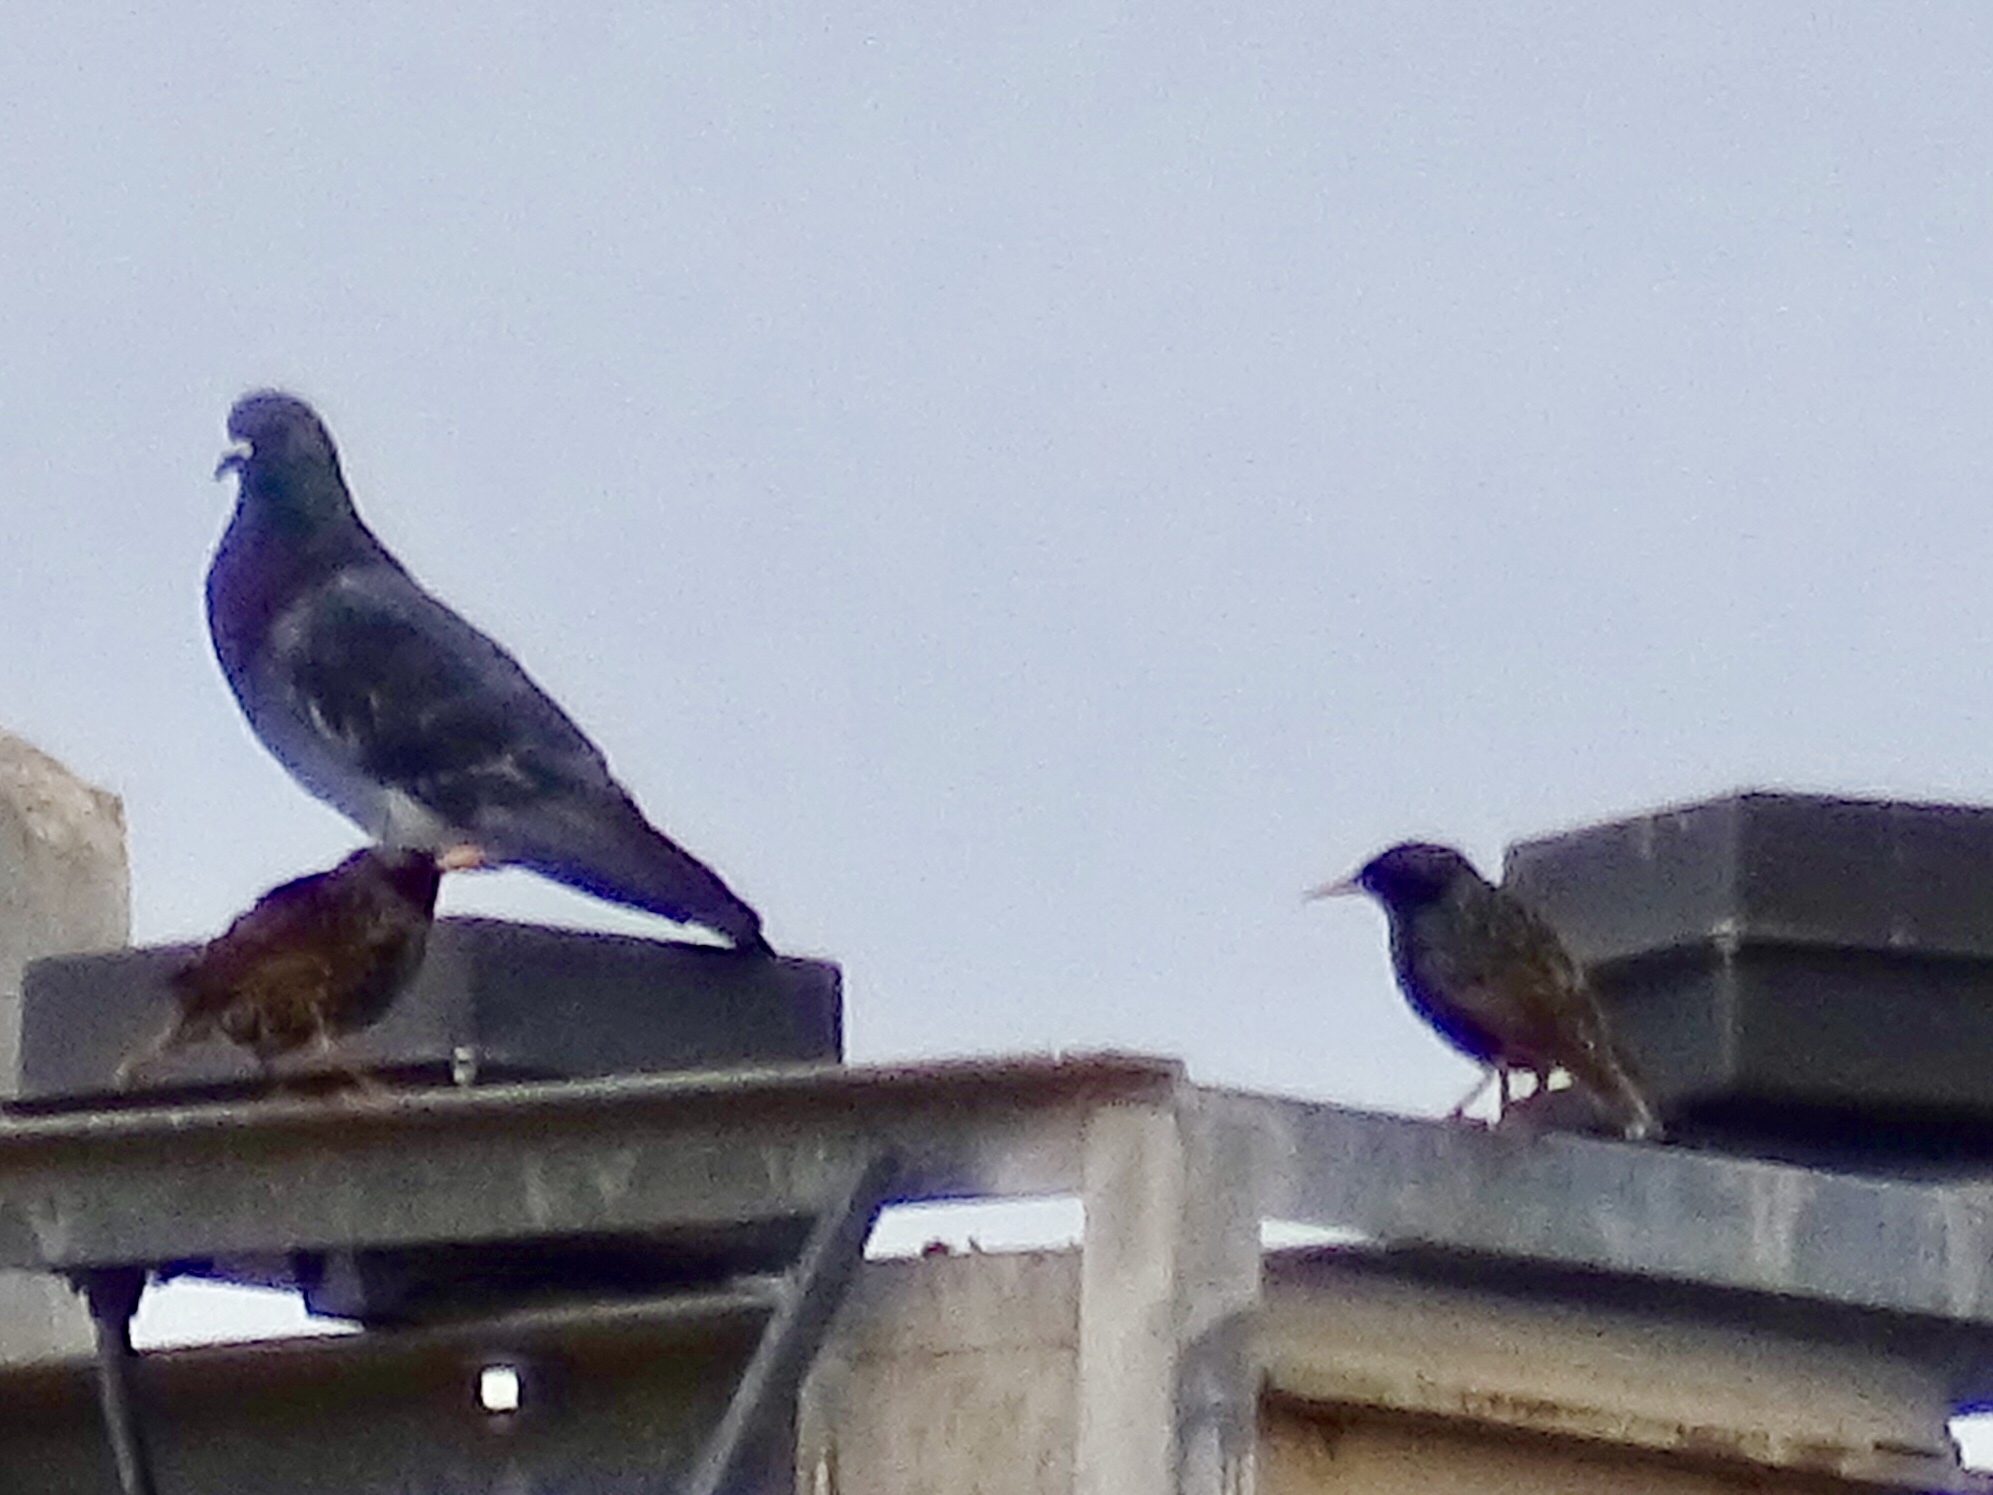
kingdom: Animalia
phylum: Chordata
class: Aves
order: Columbiformes
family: Columbidae
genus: Columba
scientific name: Columba livia
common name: Rock pigeon
